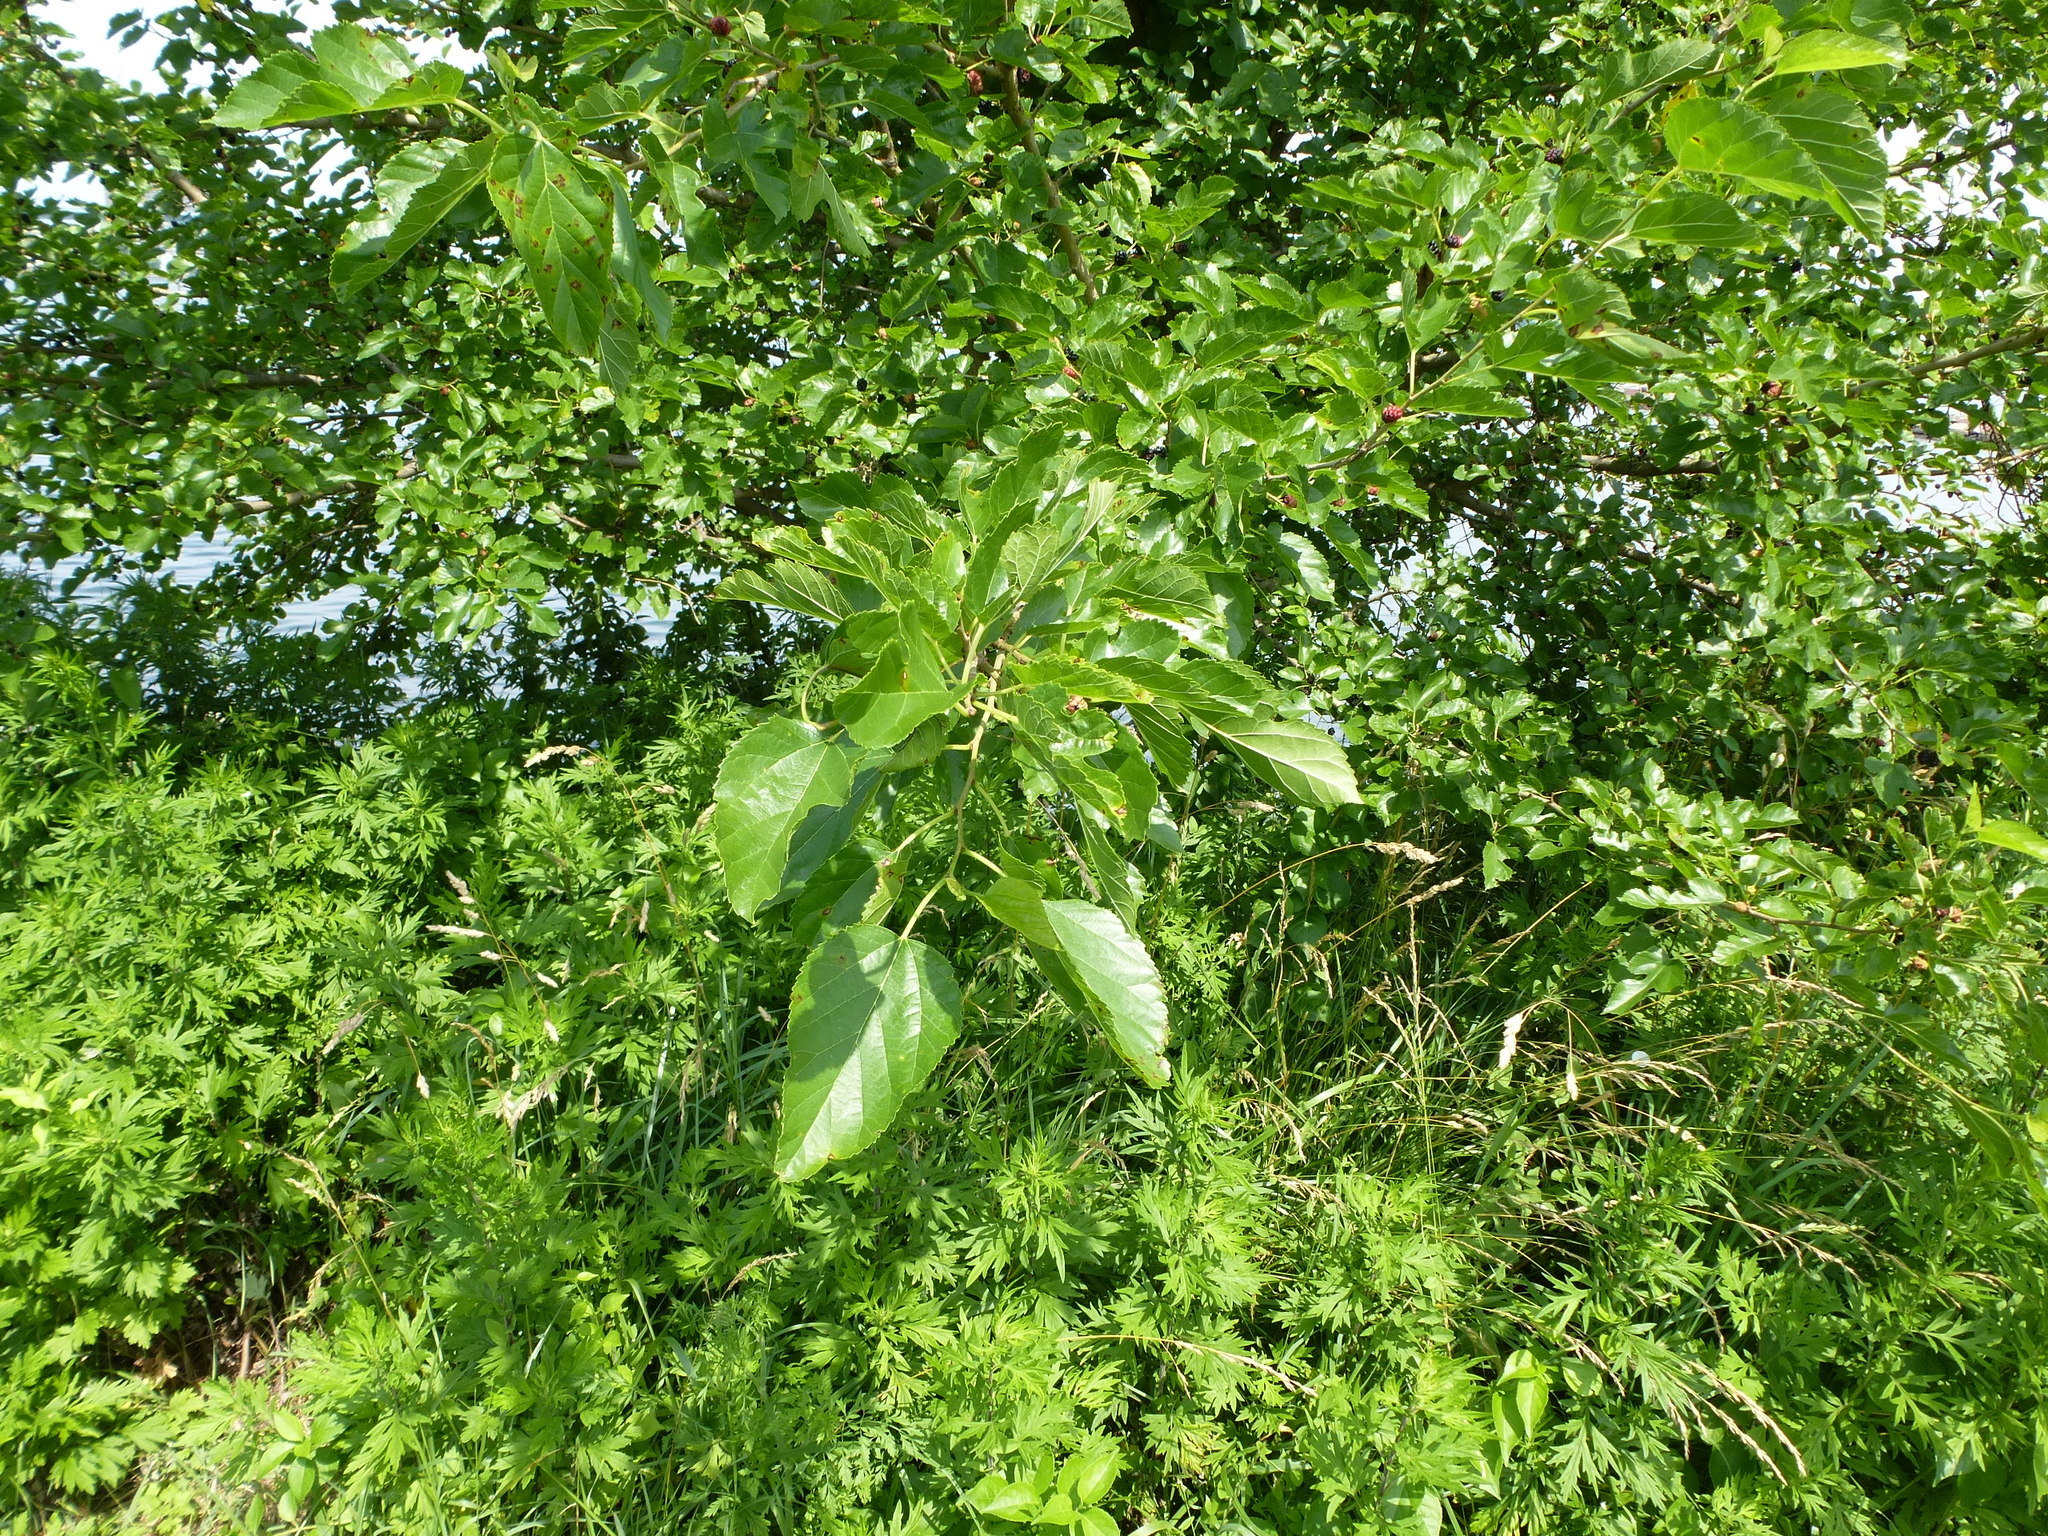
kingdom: Plantae
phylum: Tracheophyta
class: Magnoliopsida
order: Rosales
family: Moraceae
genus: Morus
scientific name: Morus alba
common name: White mulberry
